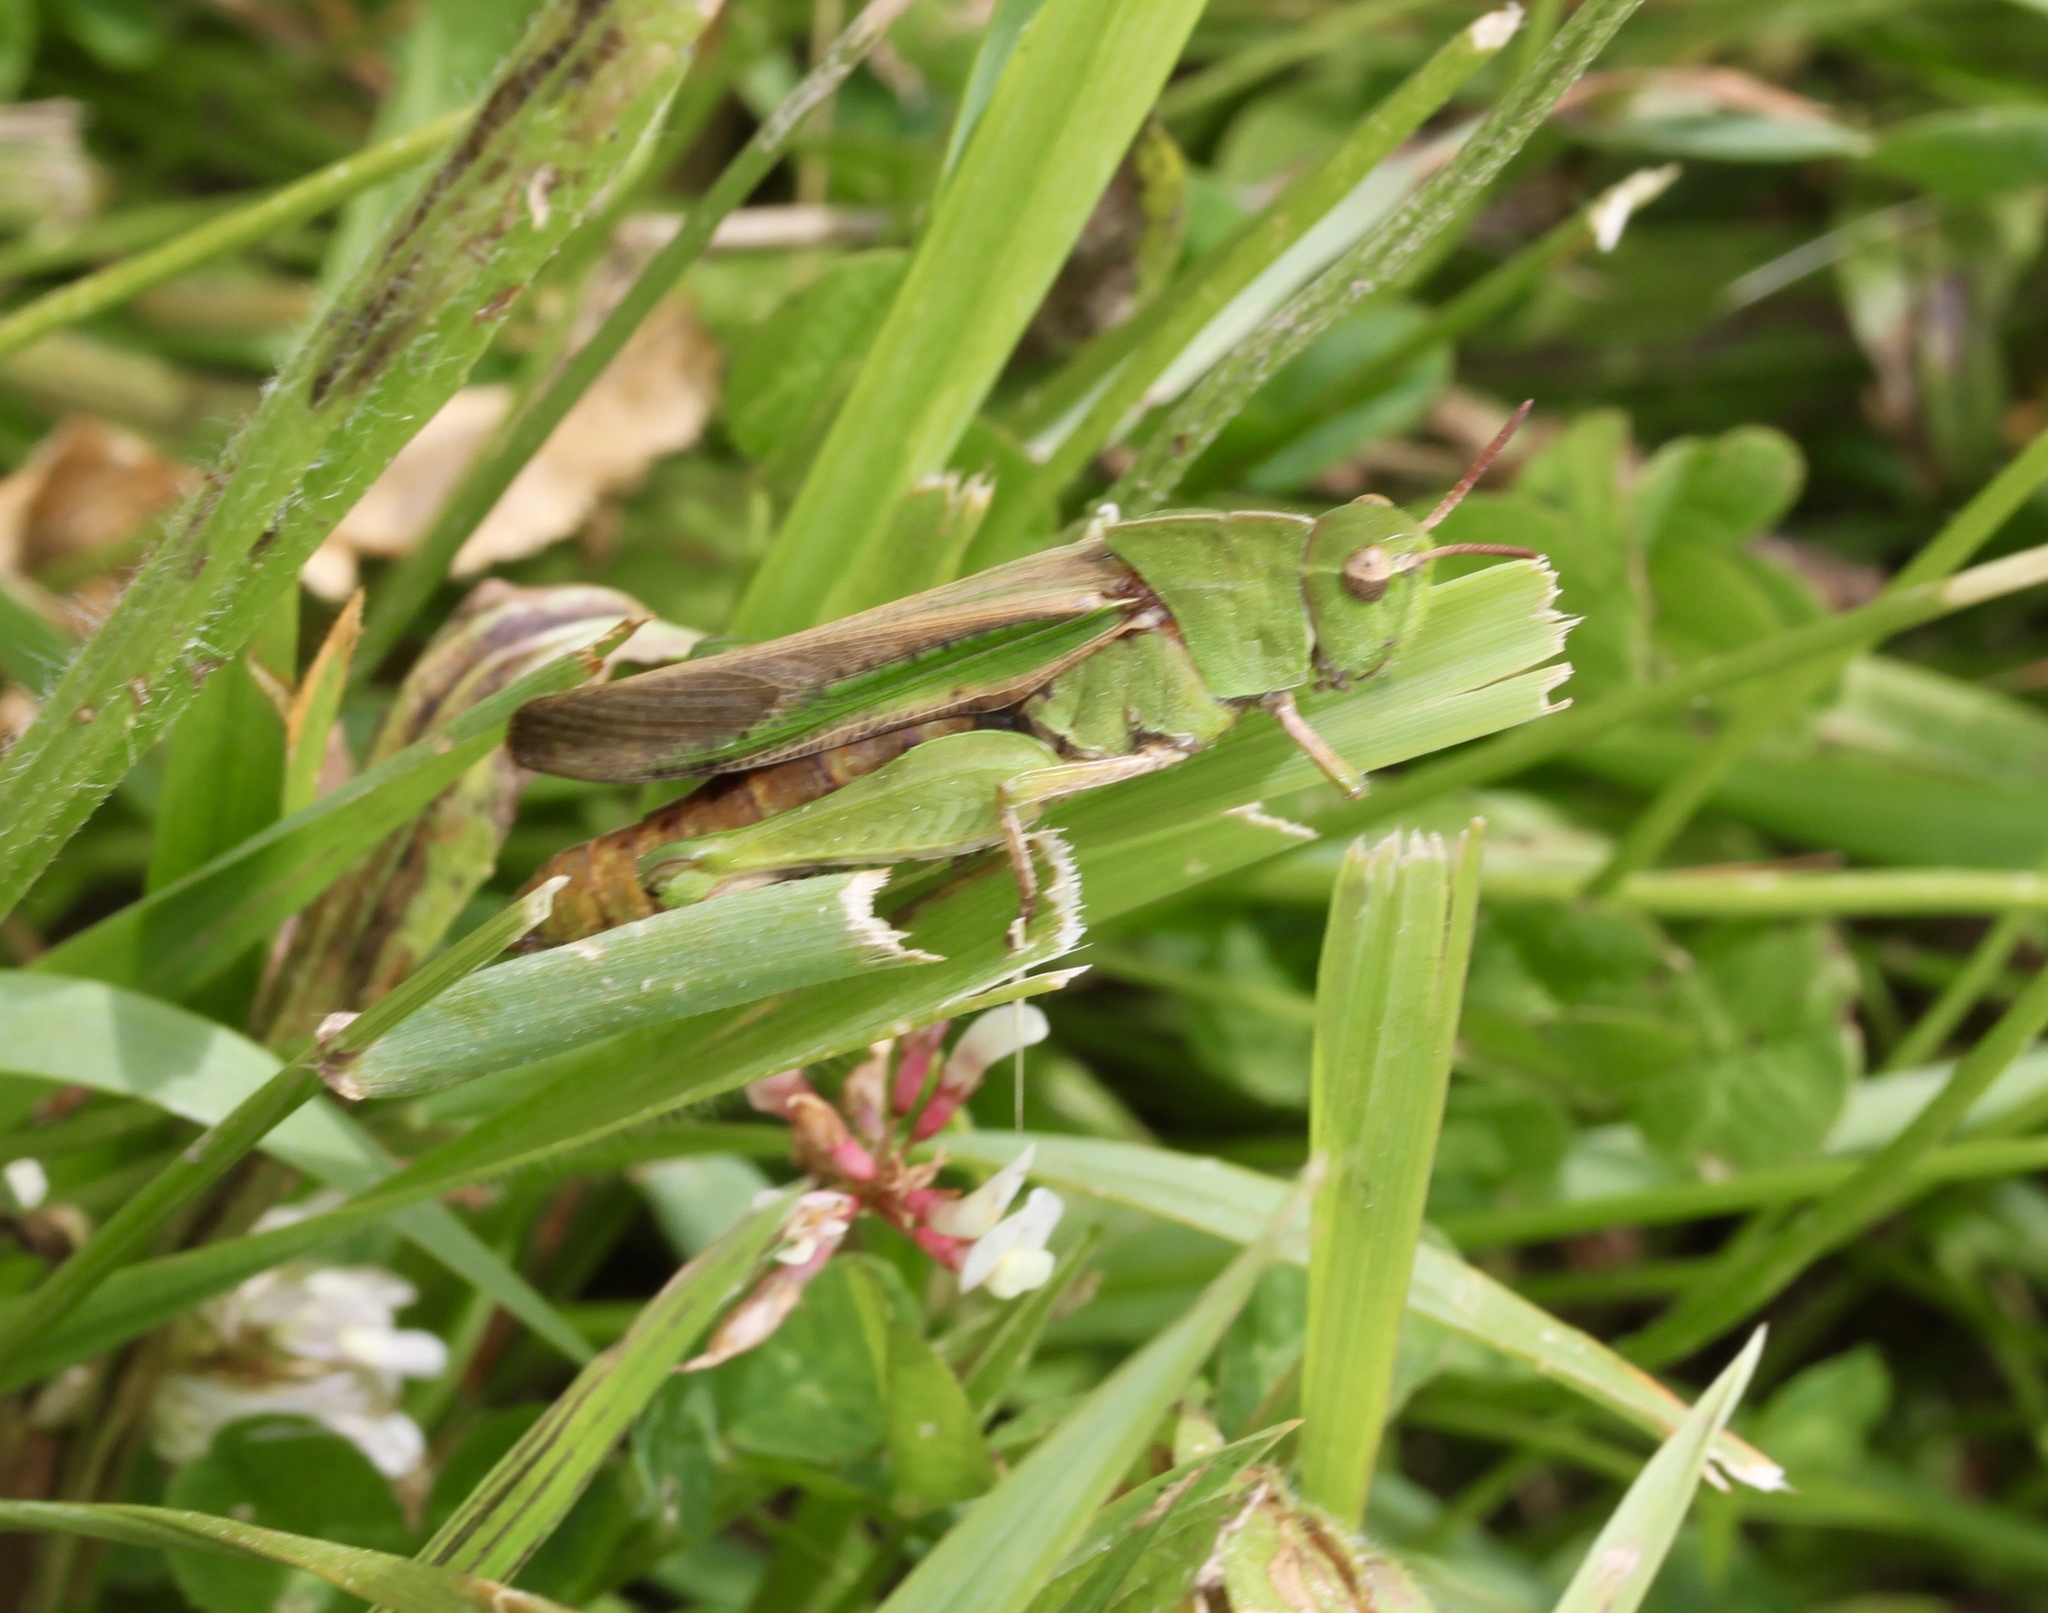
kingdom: Animalia
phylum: Arthropoda
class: Insecta
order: Orthoptera
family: Acrididae
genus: Chortophaga
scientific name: Chortophaga viridifasciata
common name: Green-striped grasshopper
